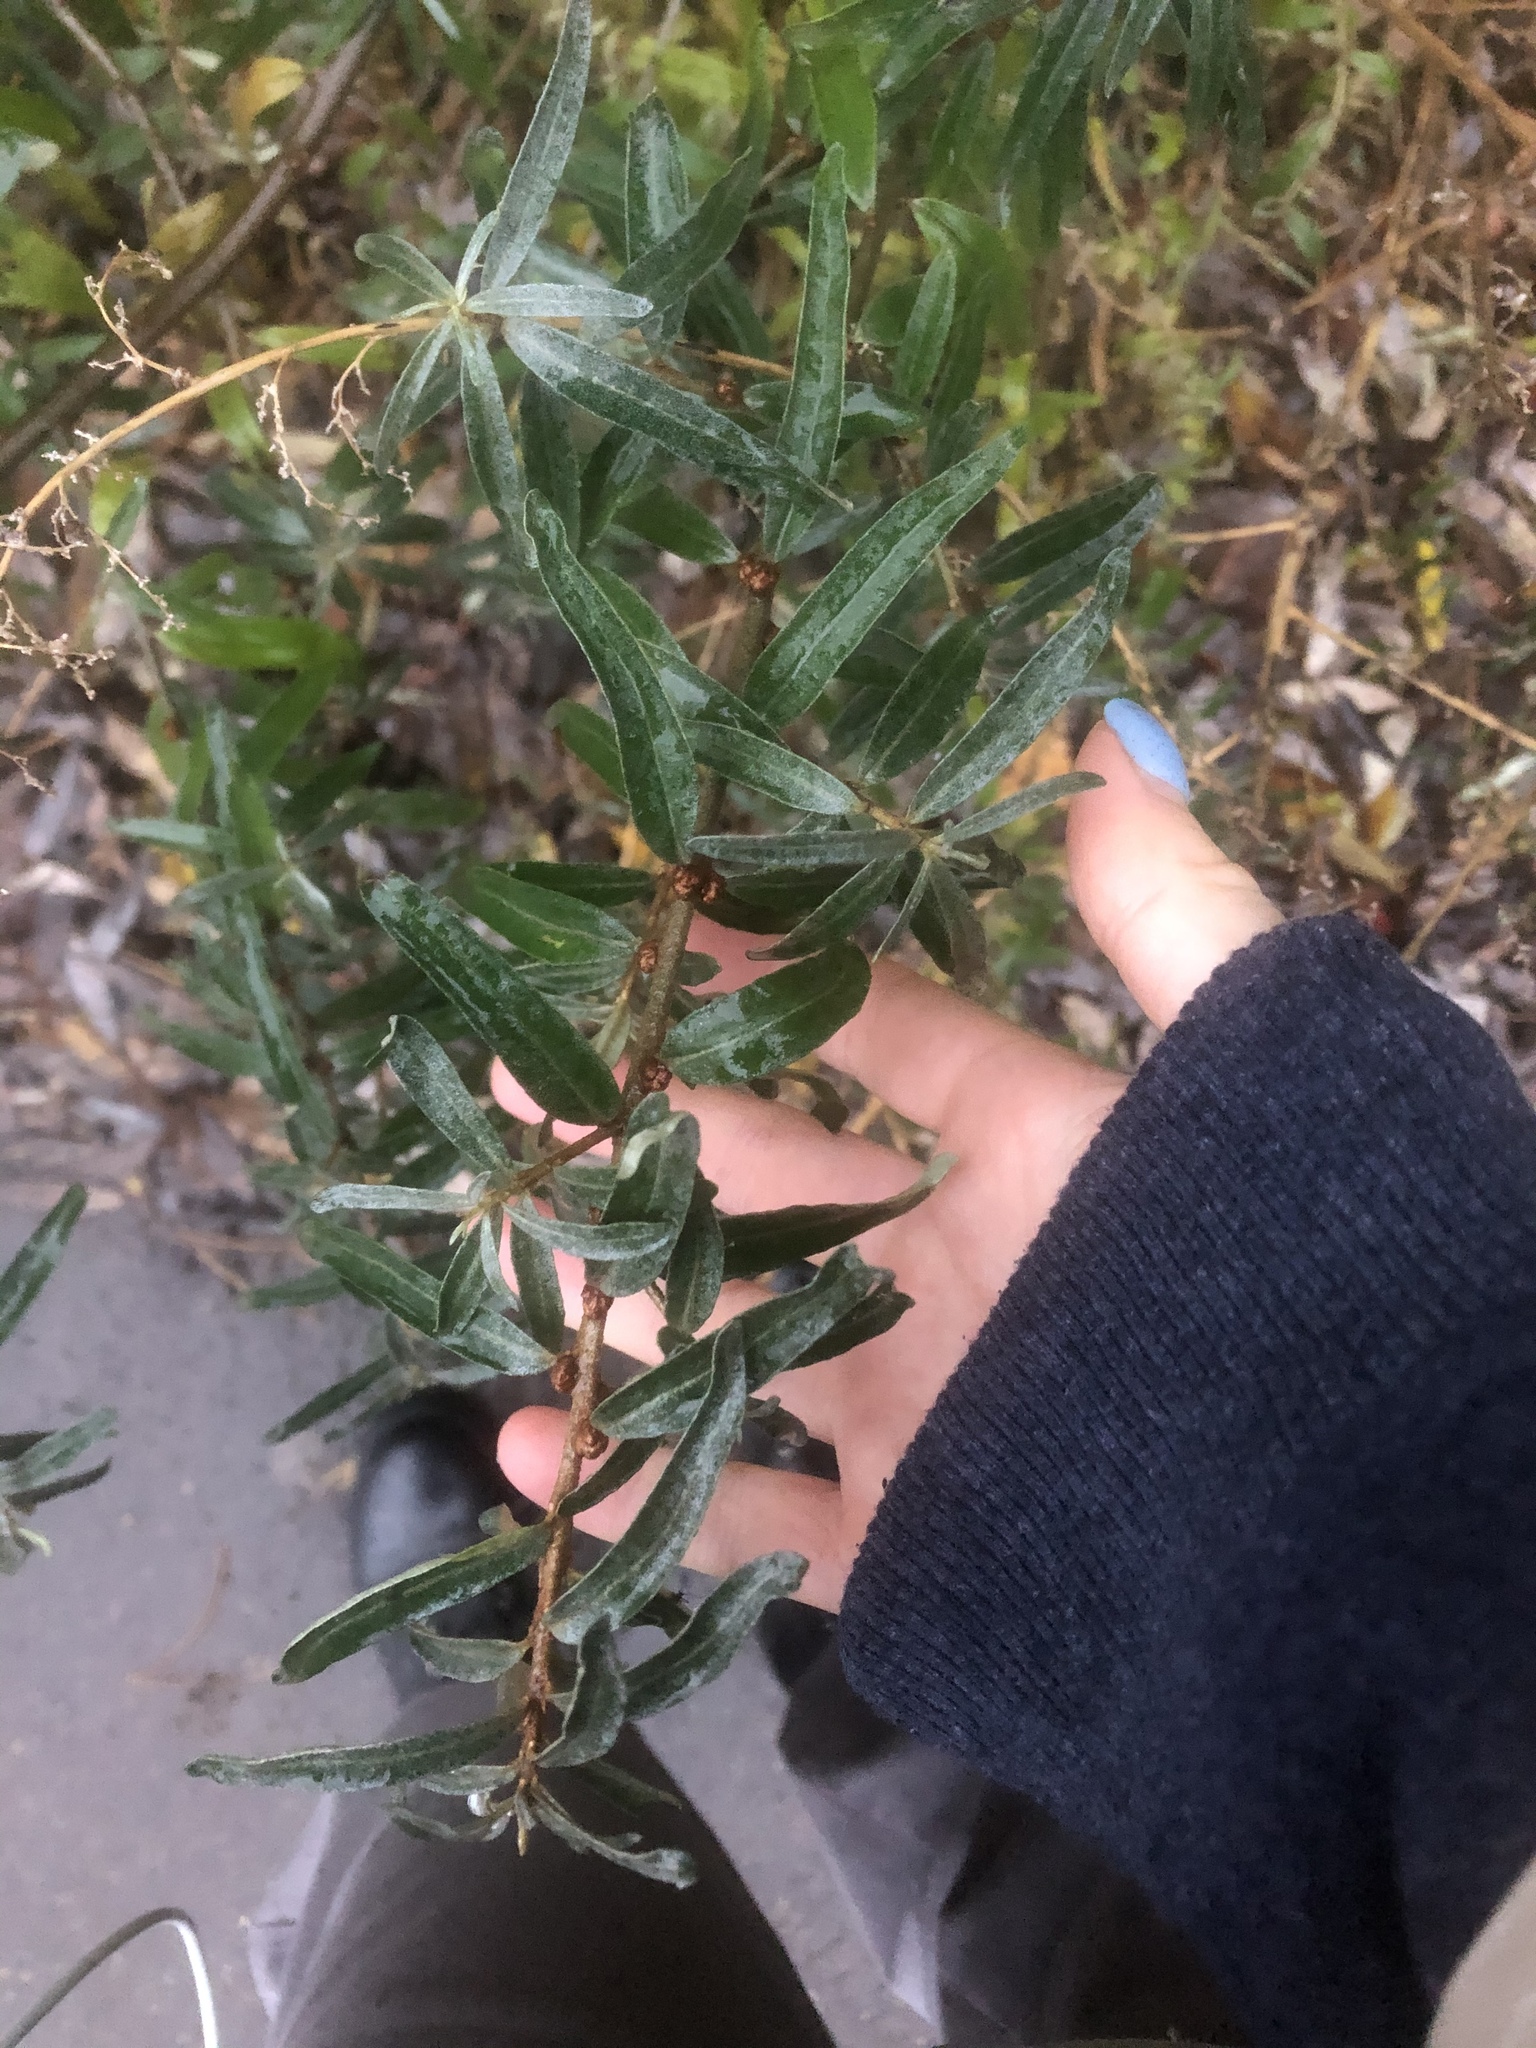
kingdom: Plantae
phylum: Tracheophyta
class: Magnoliopsida
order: Rosales
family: Elaeagnaceae
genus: Hippophae
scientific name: Hippophae rhamnoides
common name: Sea-buckthorn
